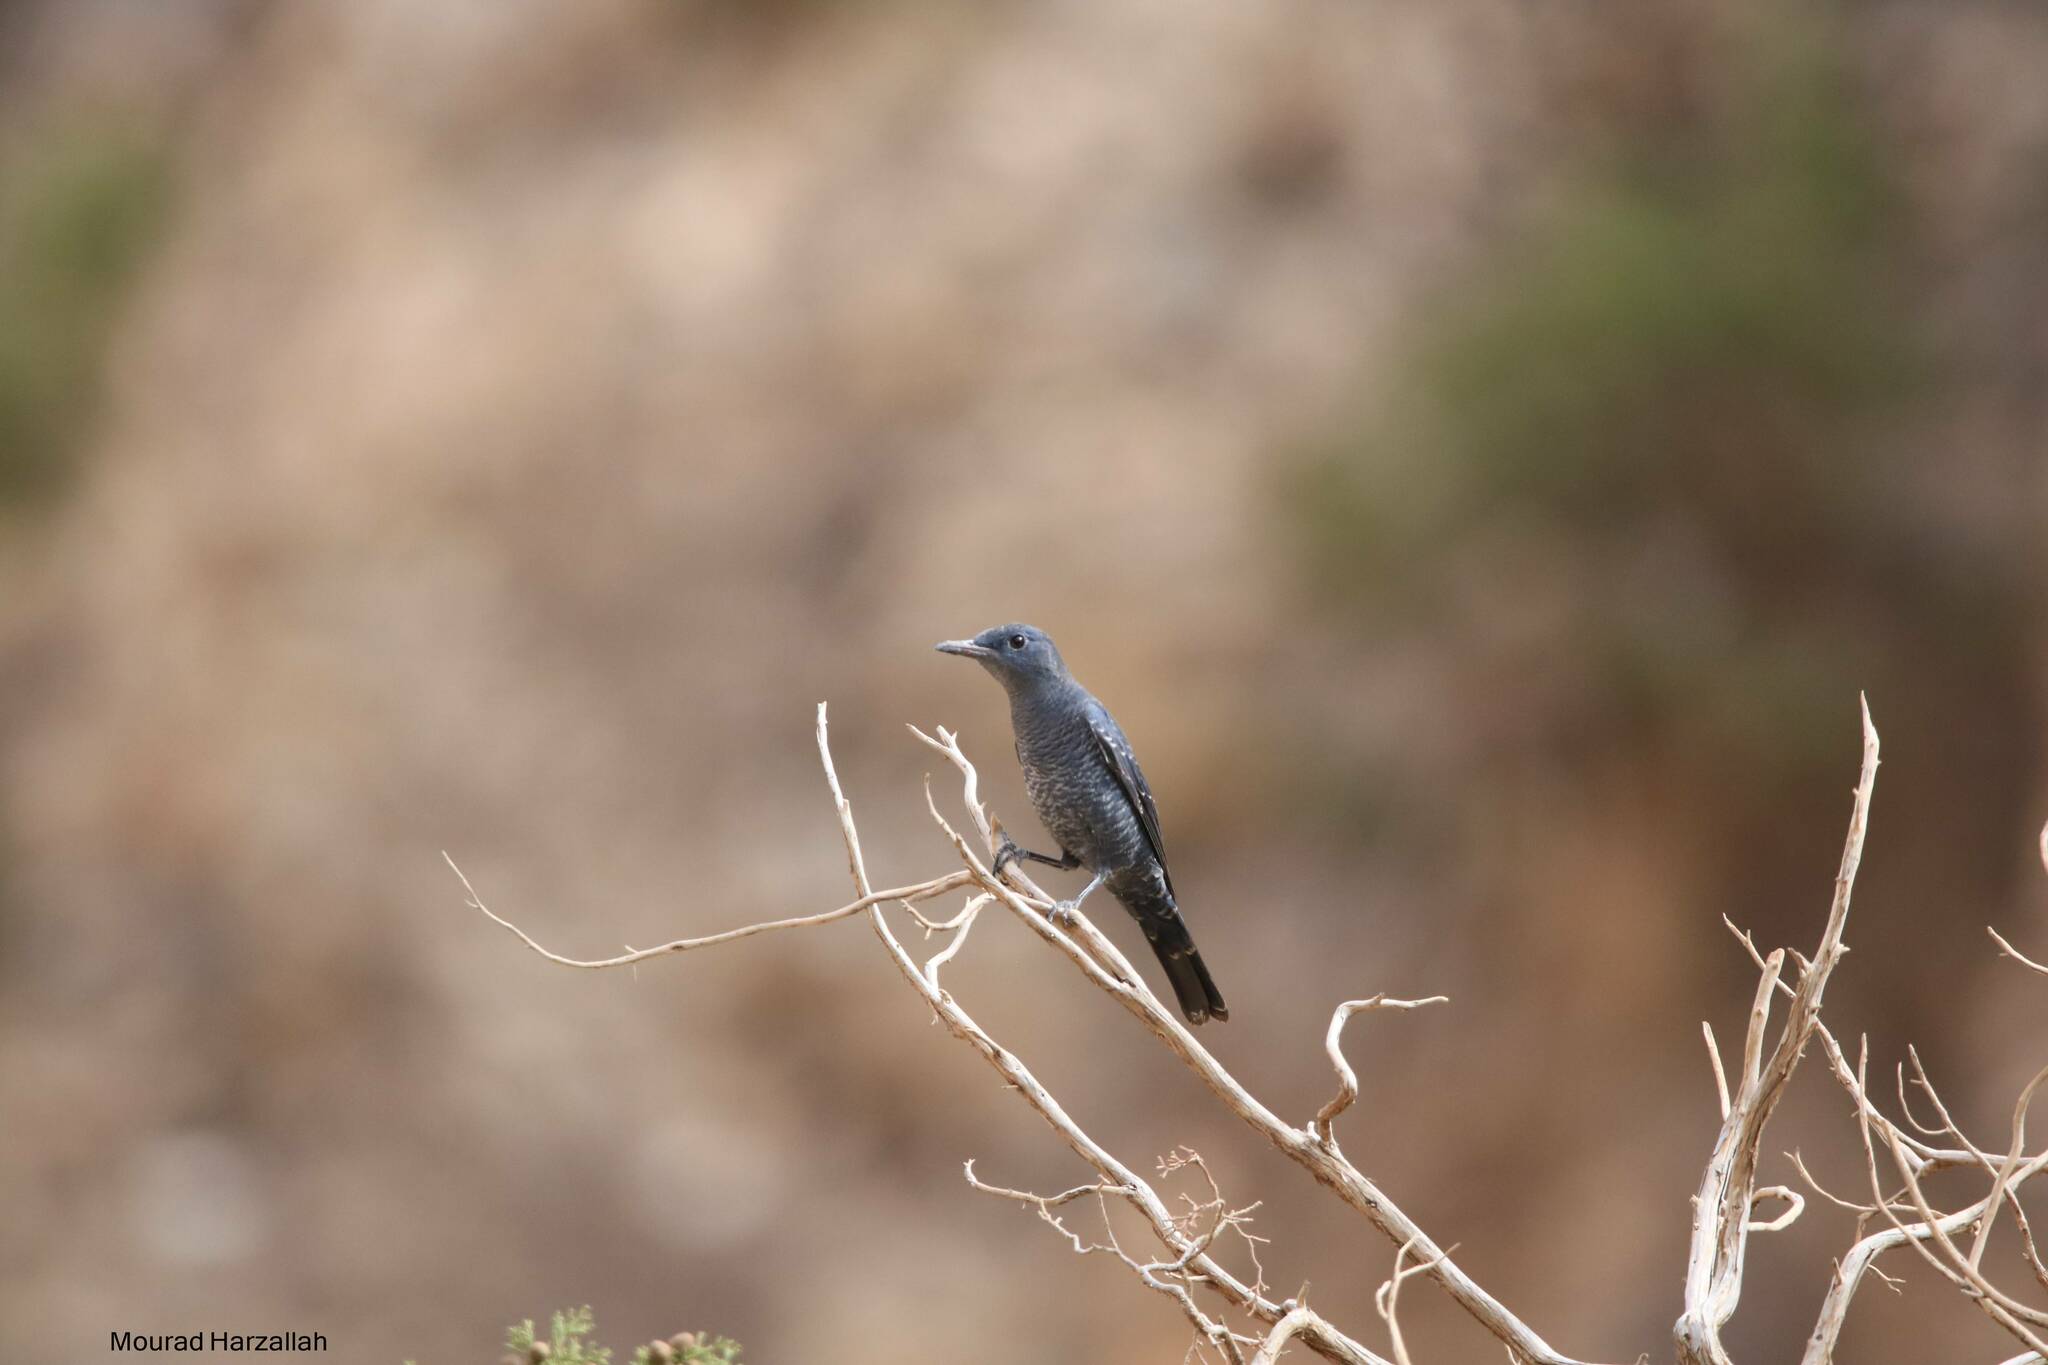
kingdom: Animalia
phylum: Chordata
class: Aves
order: Passeriformes
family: Muscicapidae
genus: Monticola
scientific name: Monticola solitarius
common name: Blue rock thrush
